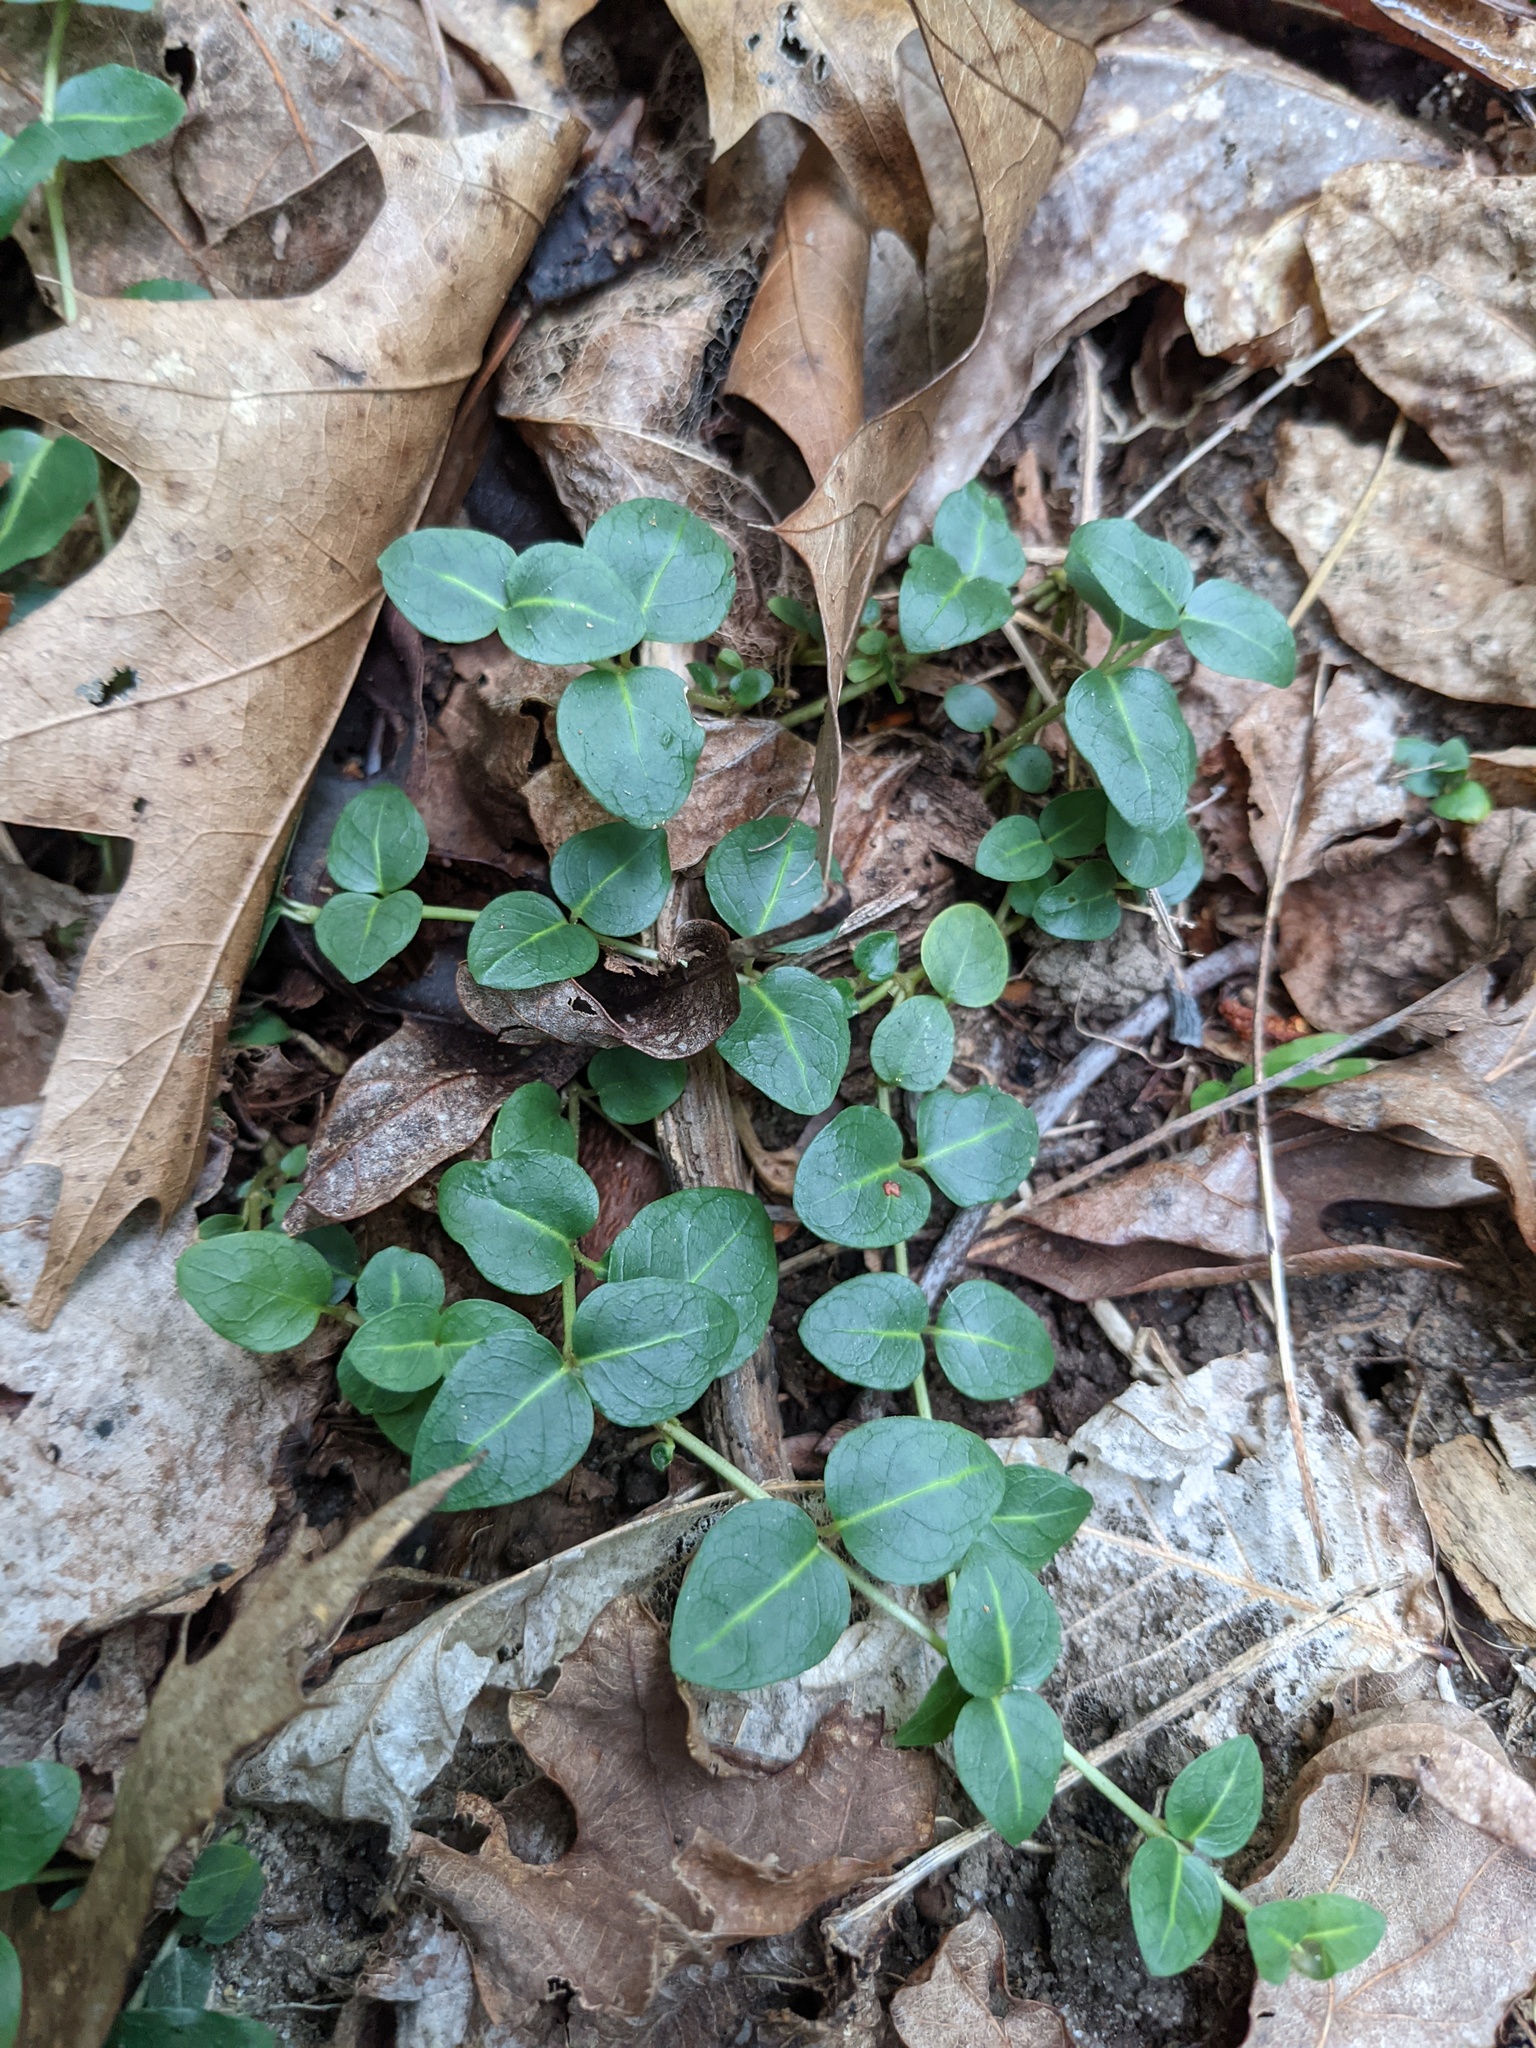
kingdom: Plantae
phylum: Tracheophyta
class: Magnoliopsida
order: Gentianales
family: Rubiaceae
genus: Mitchella
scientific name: Mitchella repens
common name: Partridge-berry
